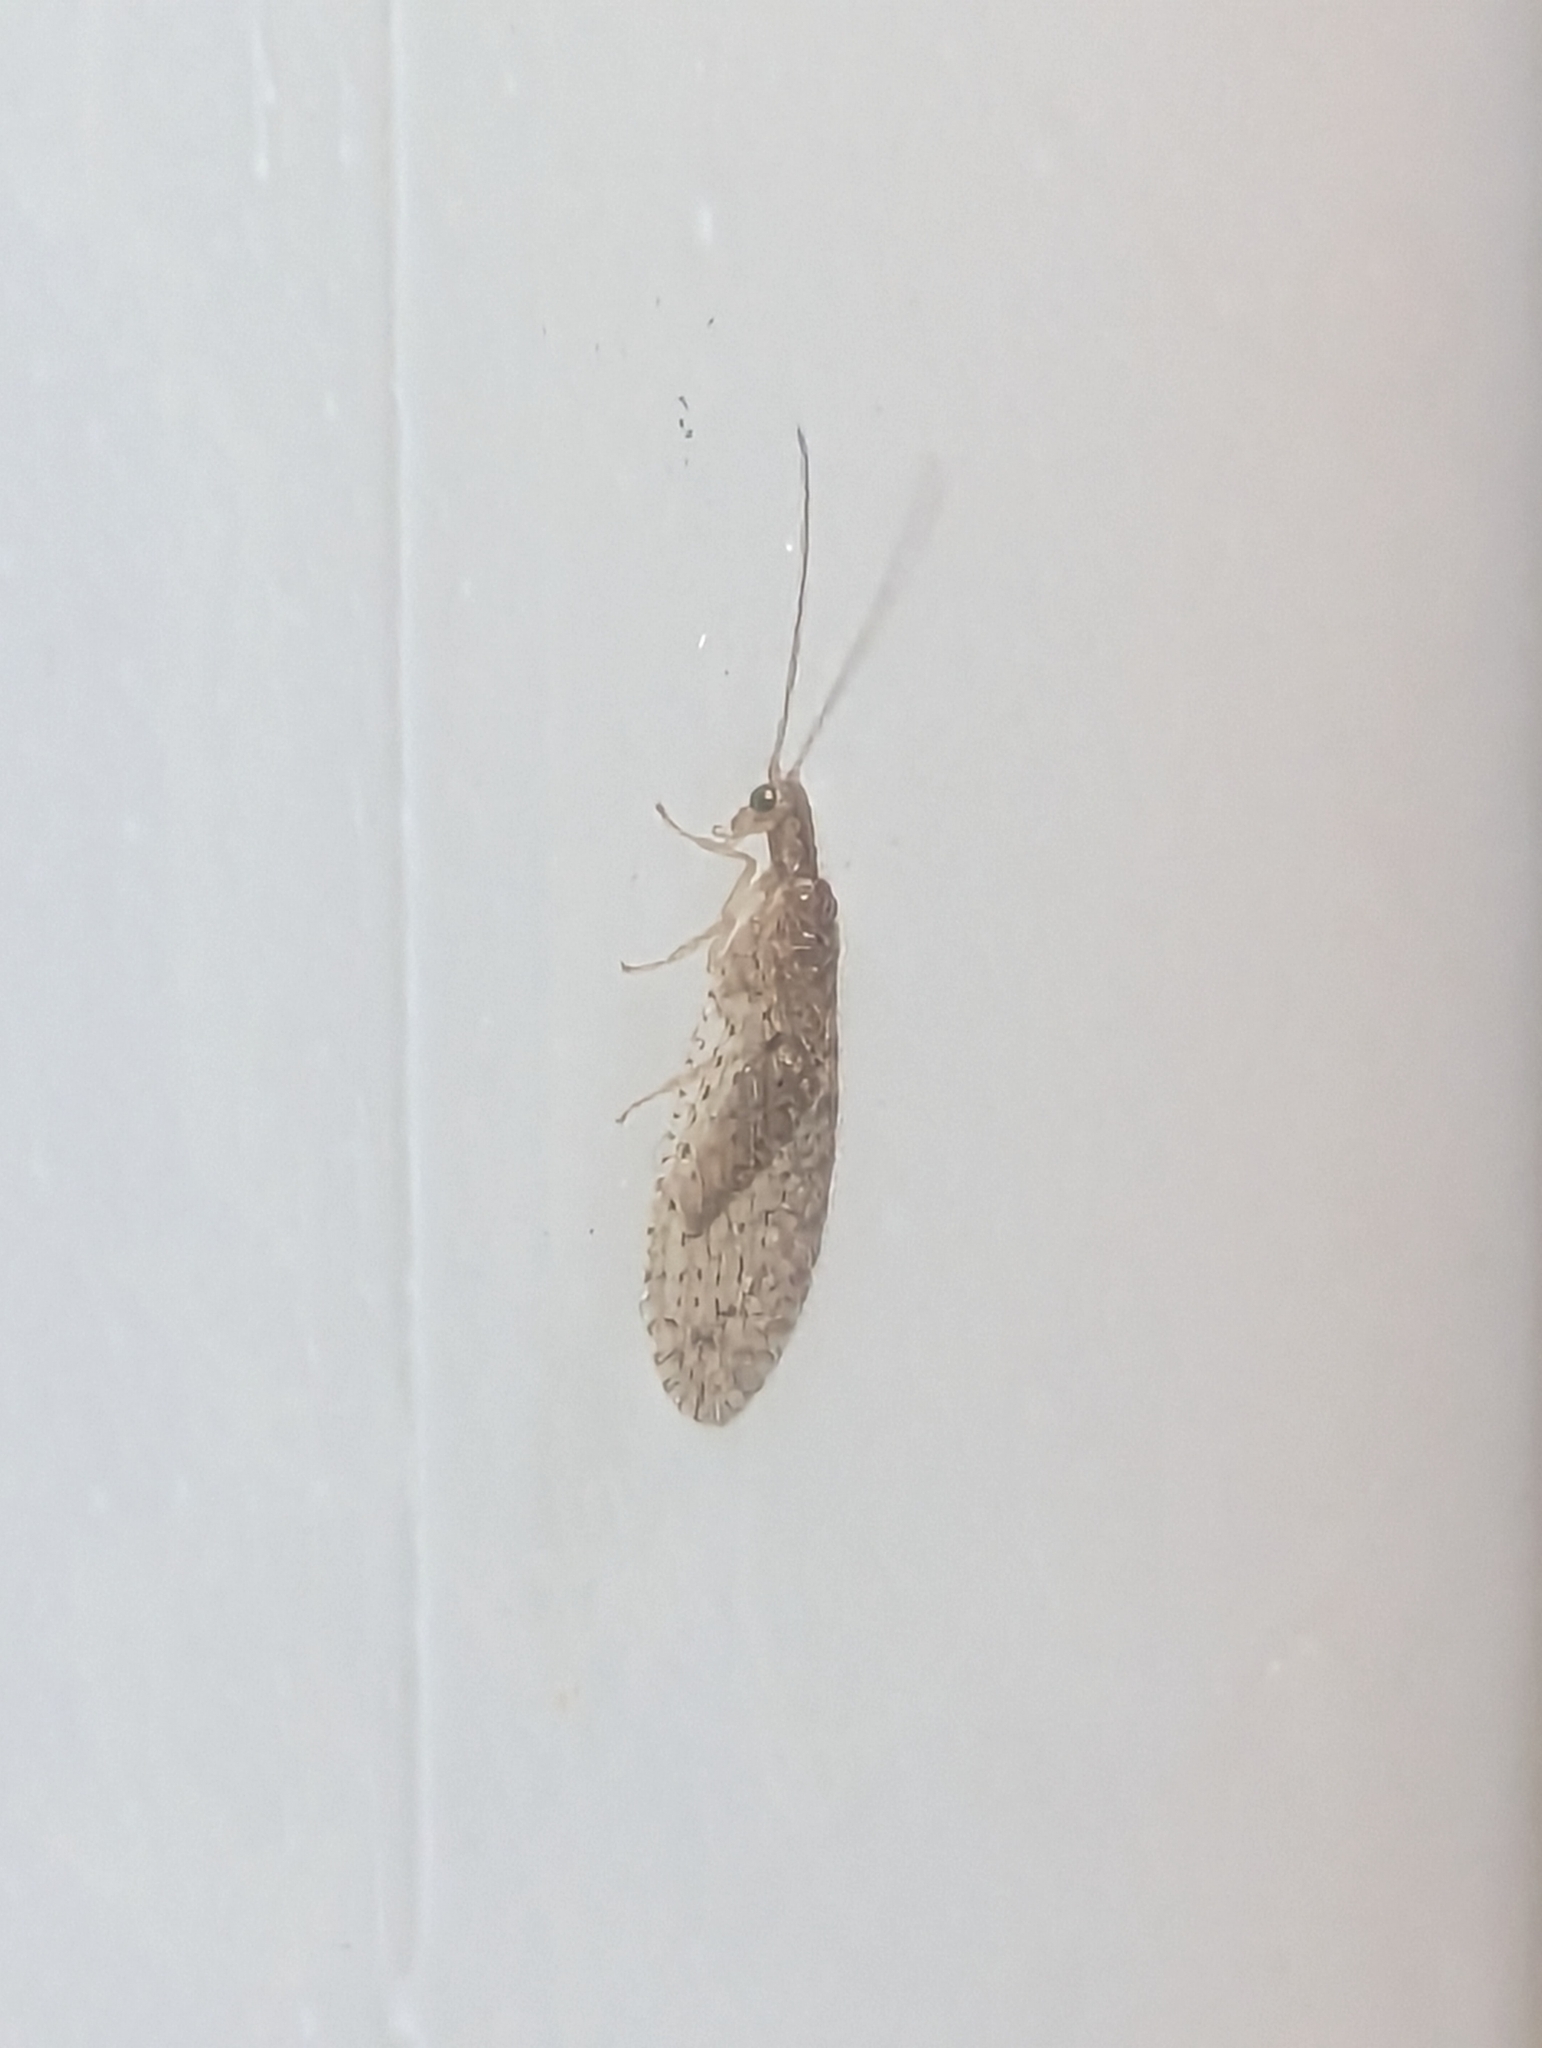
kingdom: Animalia
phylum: Arthropoda
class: Insecta
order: Neuroptera
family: Hemerobiidae
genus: Micromus
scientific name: Micromus tasmaniae
